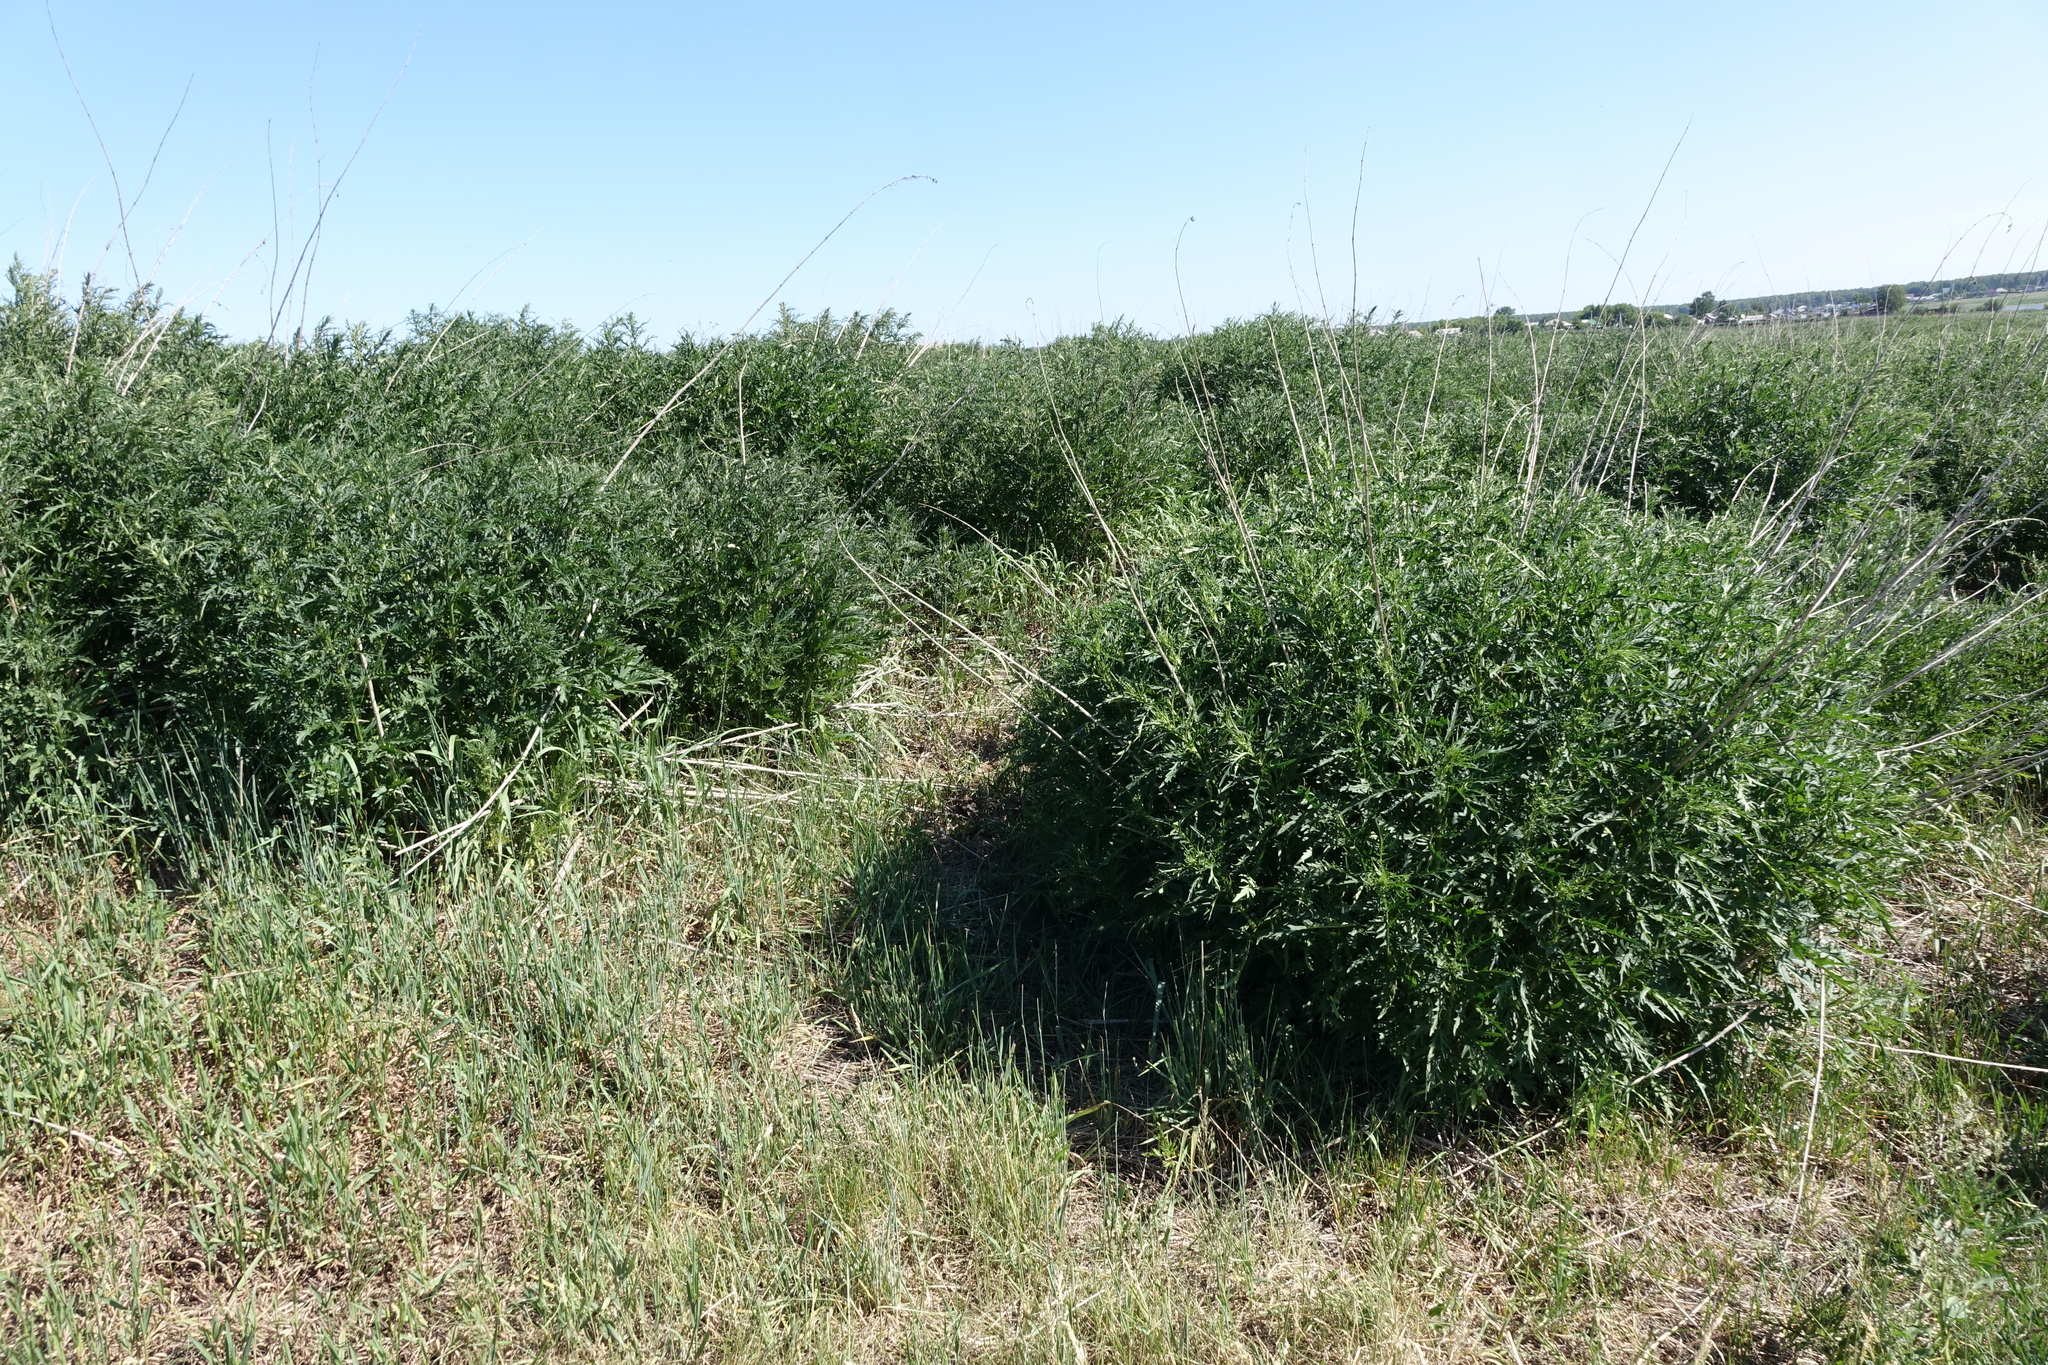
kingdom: Plantae
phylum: Tracheophyta
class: Magnoliopsida
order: Rosales
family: Urticaceae
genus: Urtica
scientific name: Urtica cannabina
